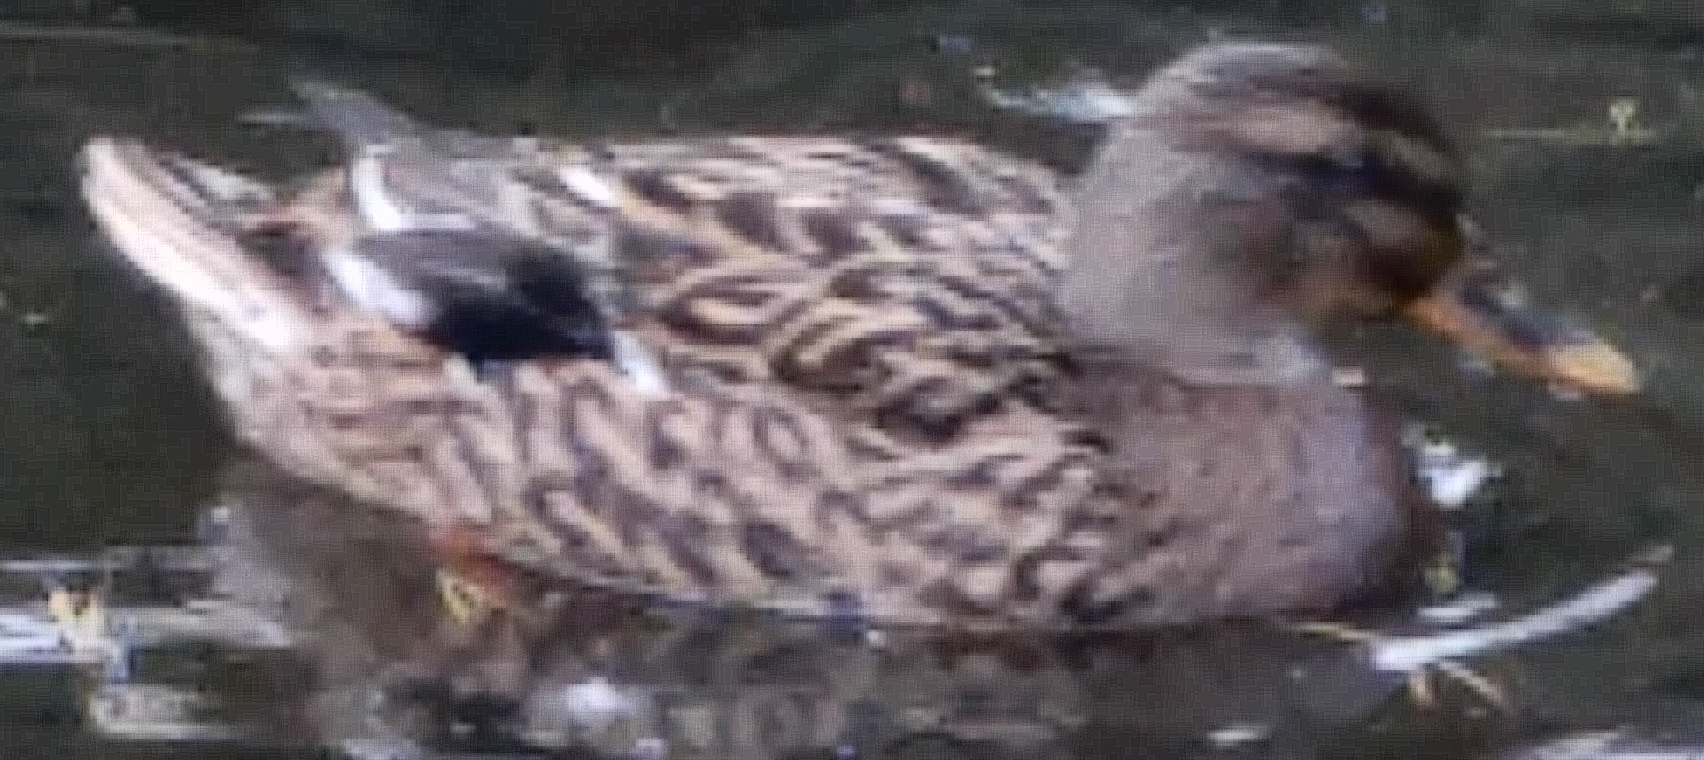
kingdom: Animalia
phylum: Chordata
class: Aves
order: Anseriformes
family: Anatidae
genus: Anas
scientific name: Anas platyrhynchos
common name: Mallard
